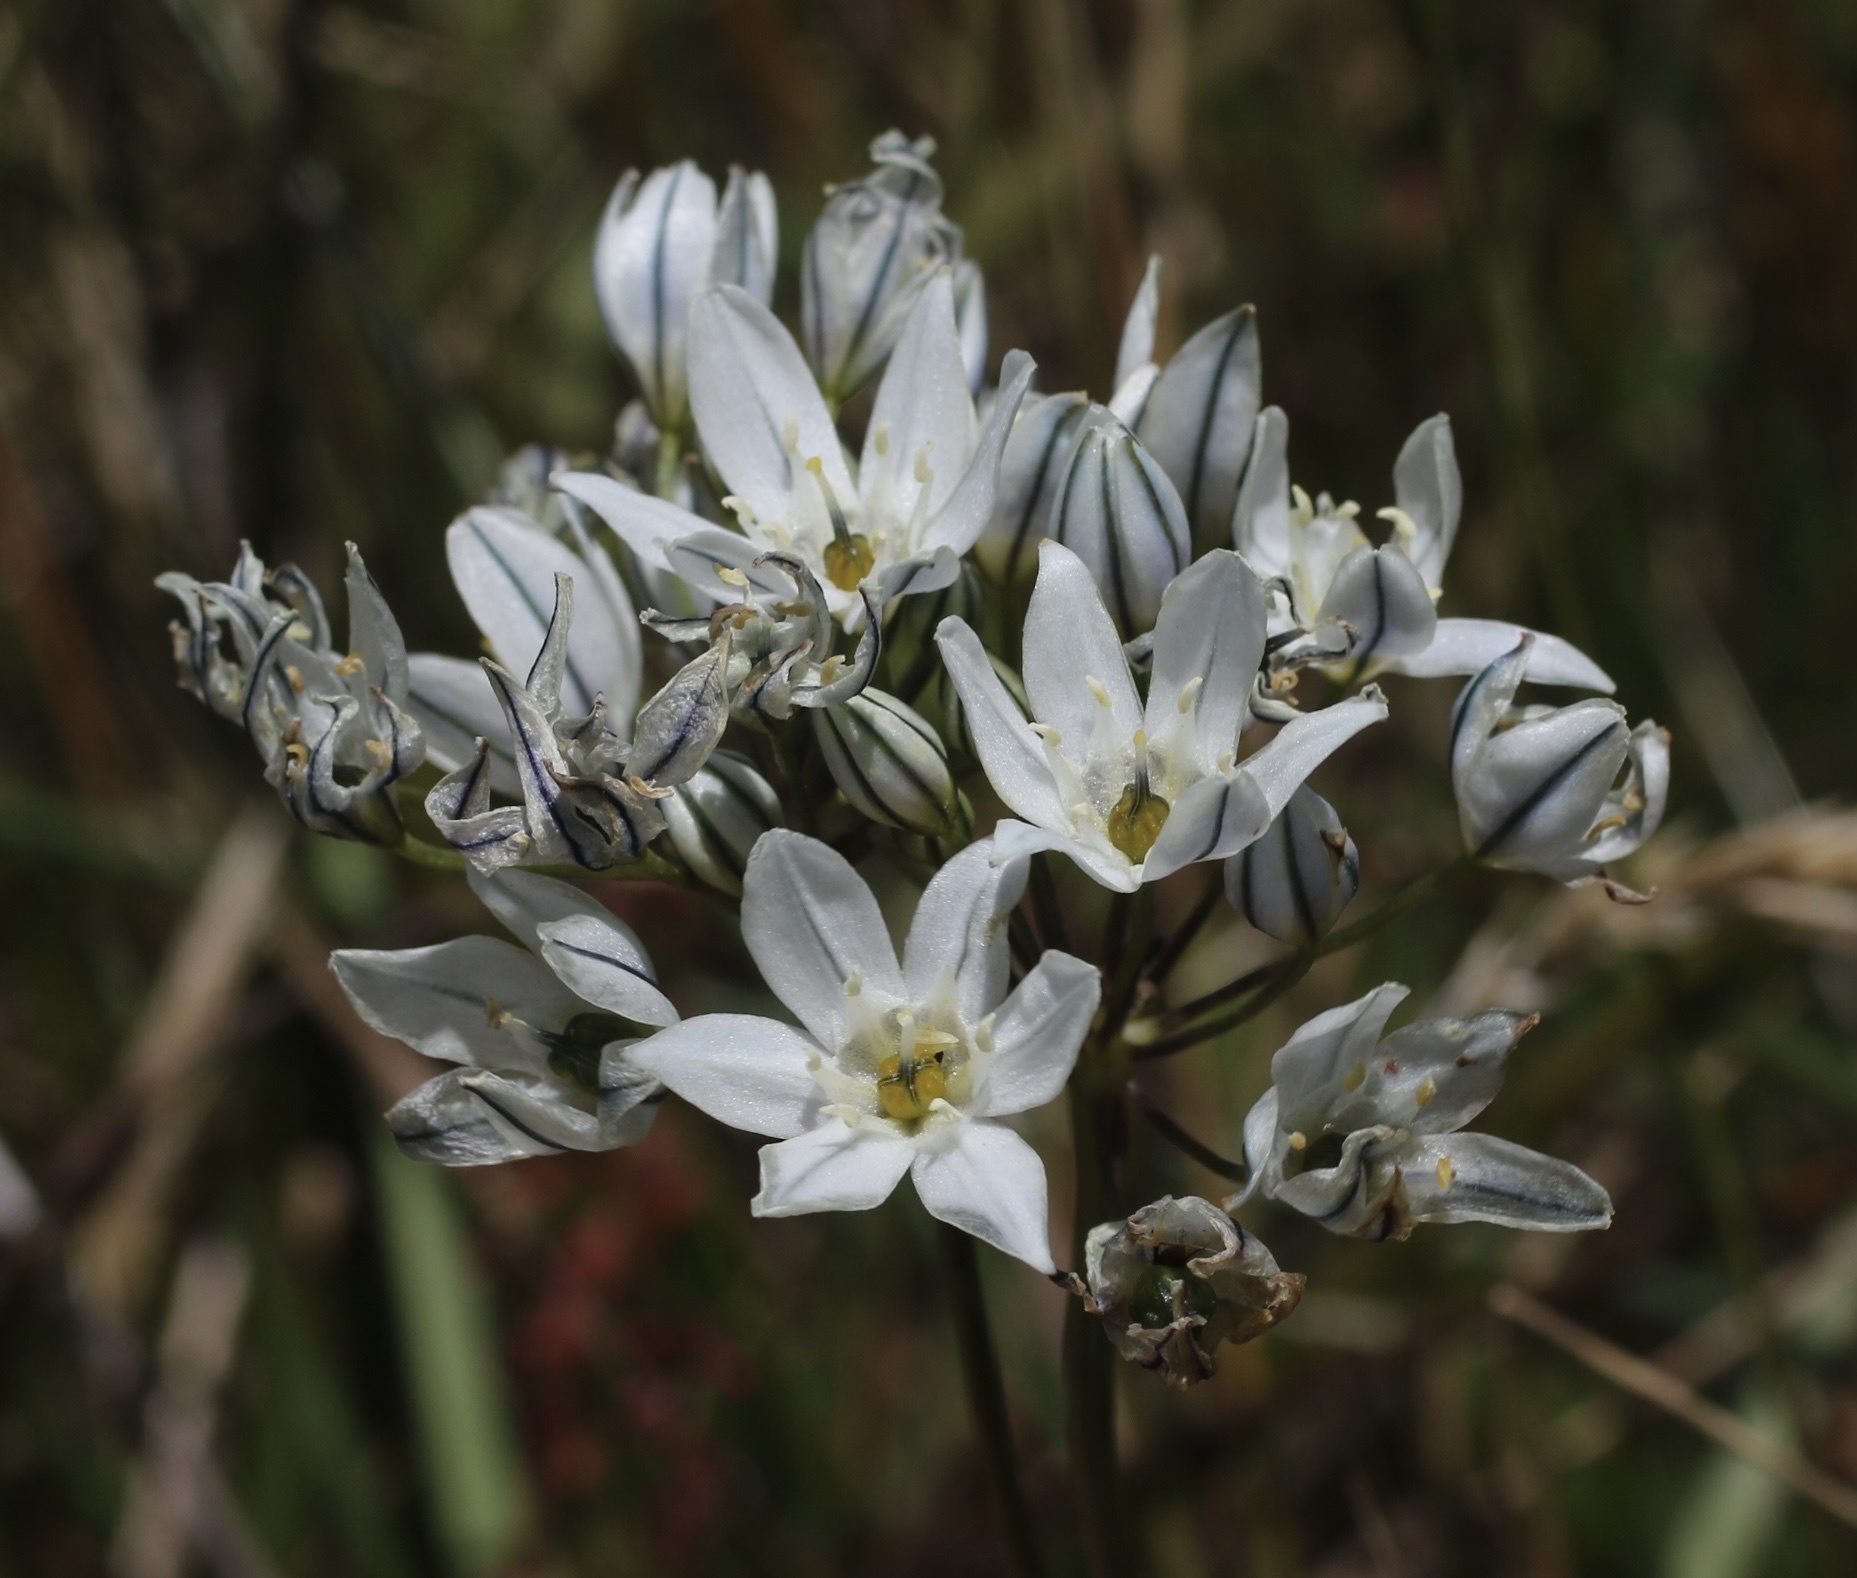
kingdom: Plantae
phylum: Tracheophyta
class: Liliopsida
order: Asparagales
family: Asparagaceae
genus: Triteleia
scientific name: Triteleia hyacinthina
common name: White brodiaea
